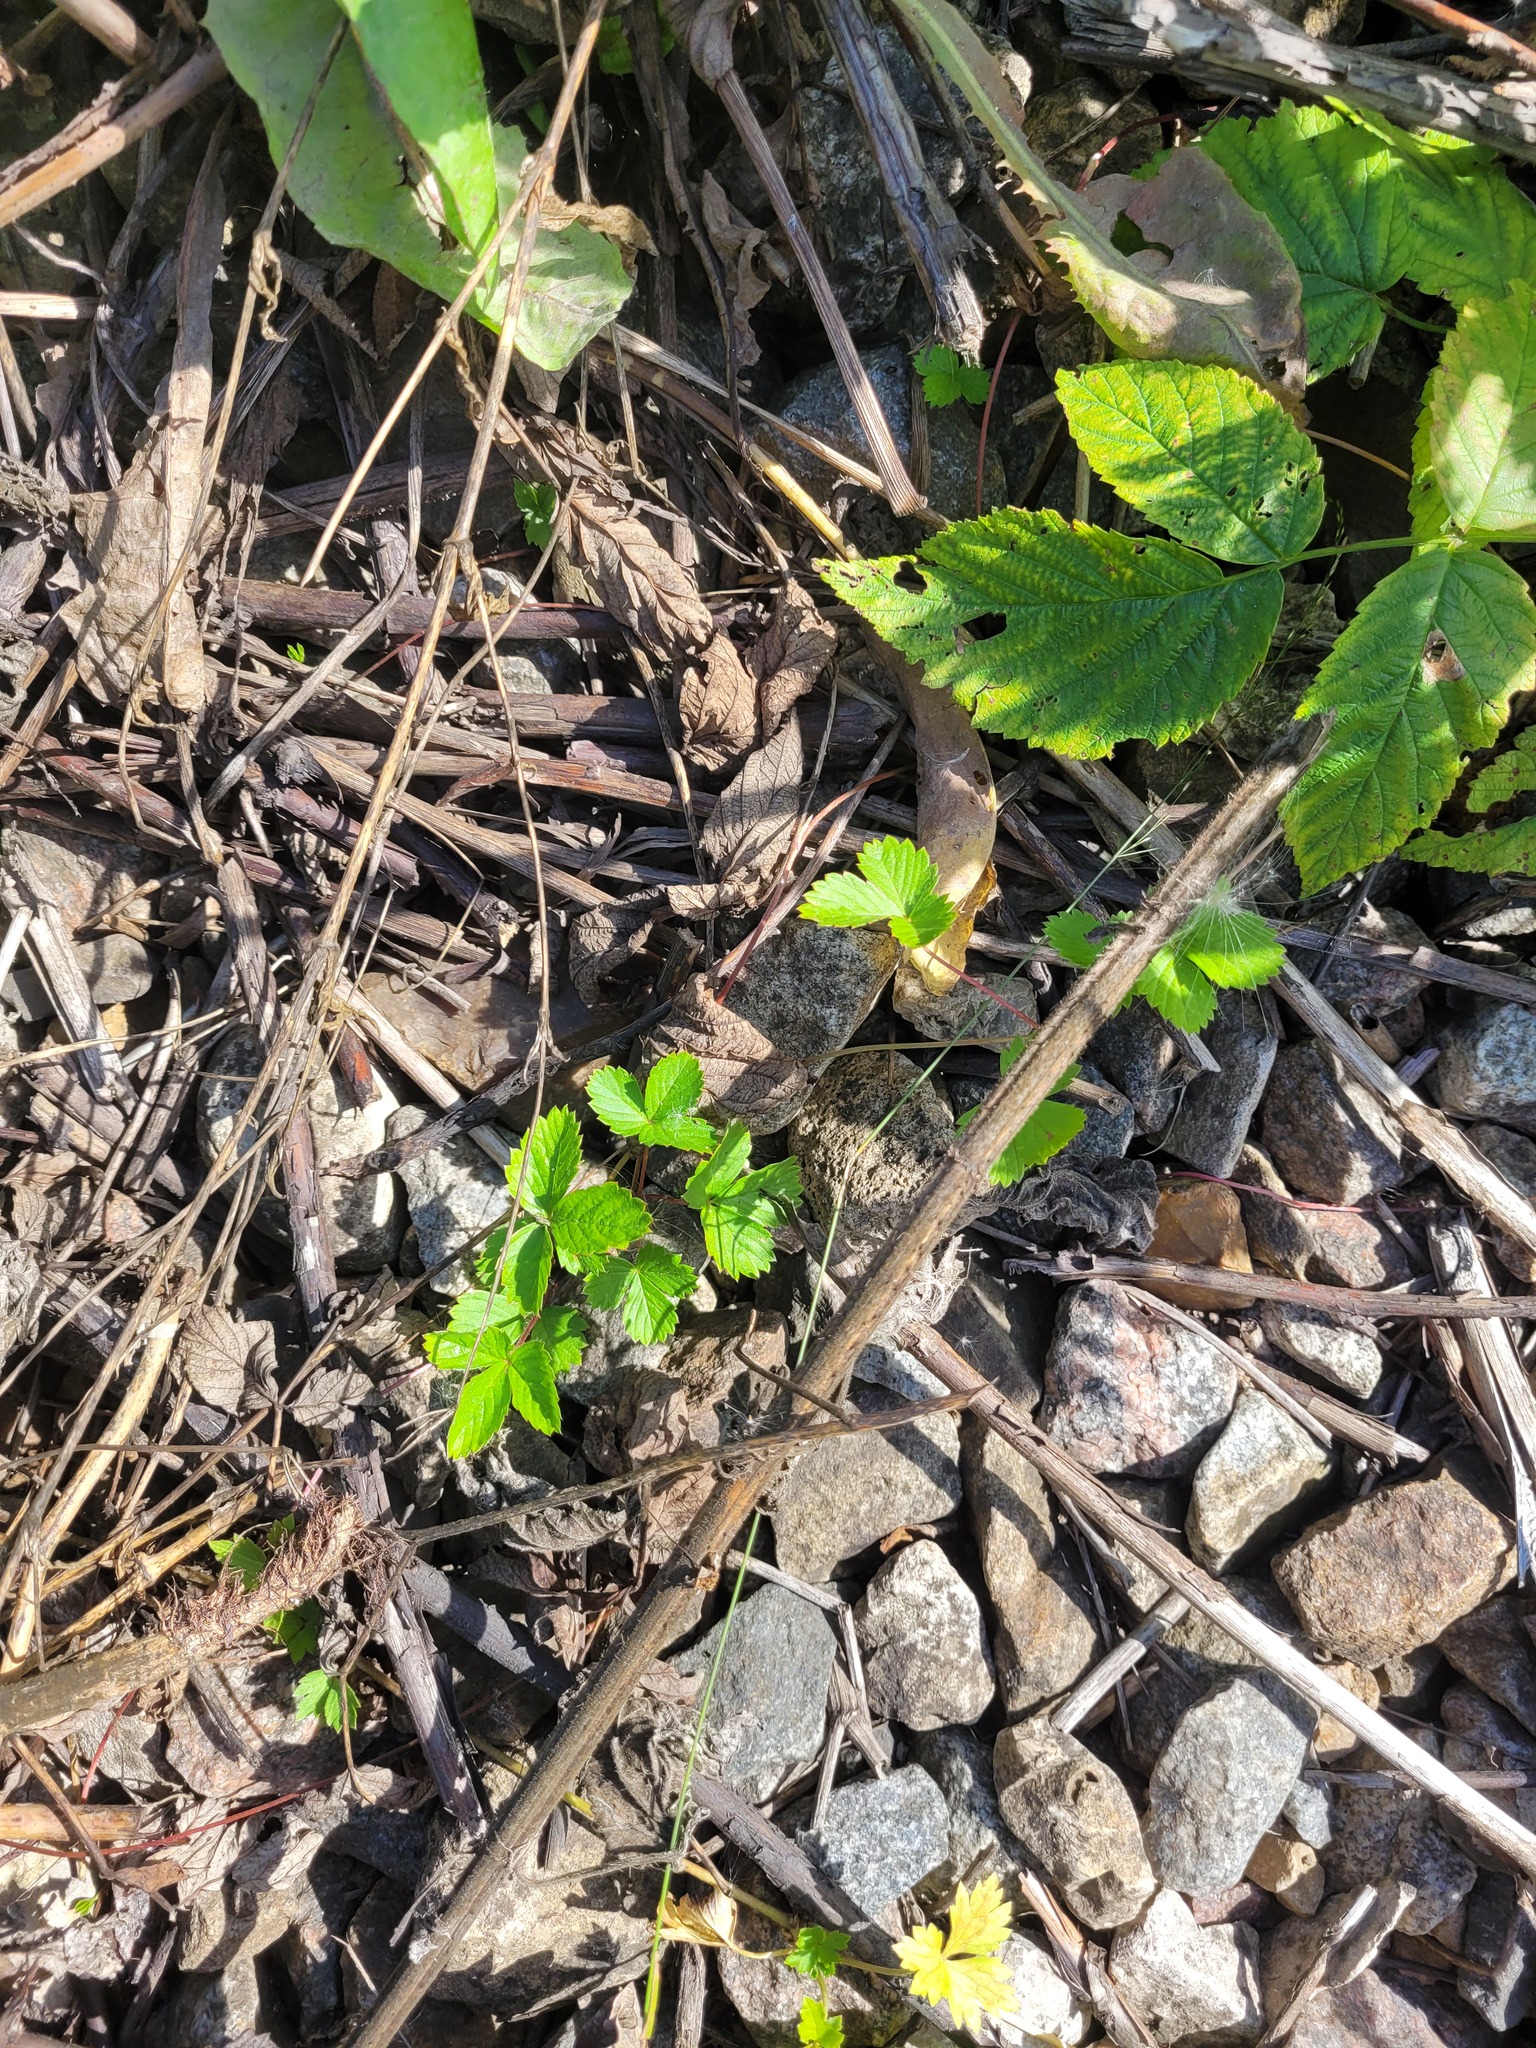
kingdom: Plantae
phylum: Tracheophyta
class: Magnoliopsida
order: Rosales
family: Rosaceae
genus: Fragaria
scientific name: Fragaria vesca
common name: Wild strawberry
